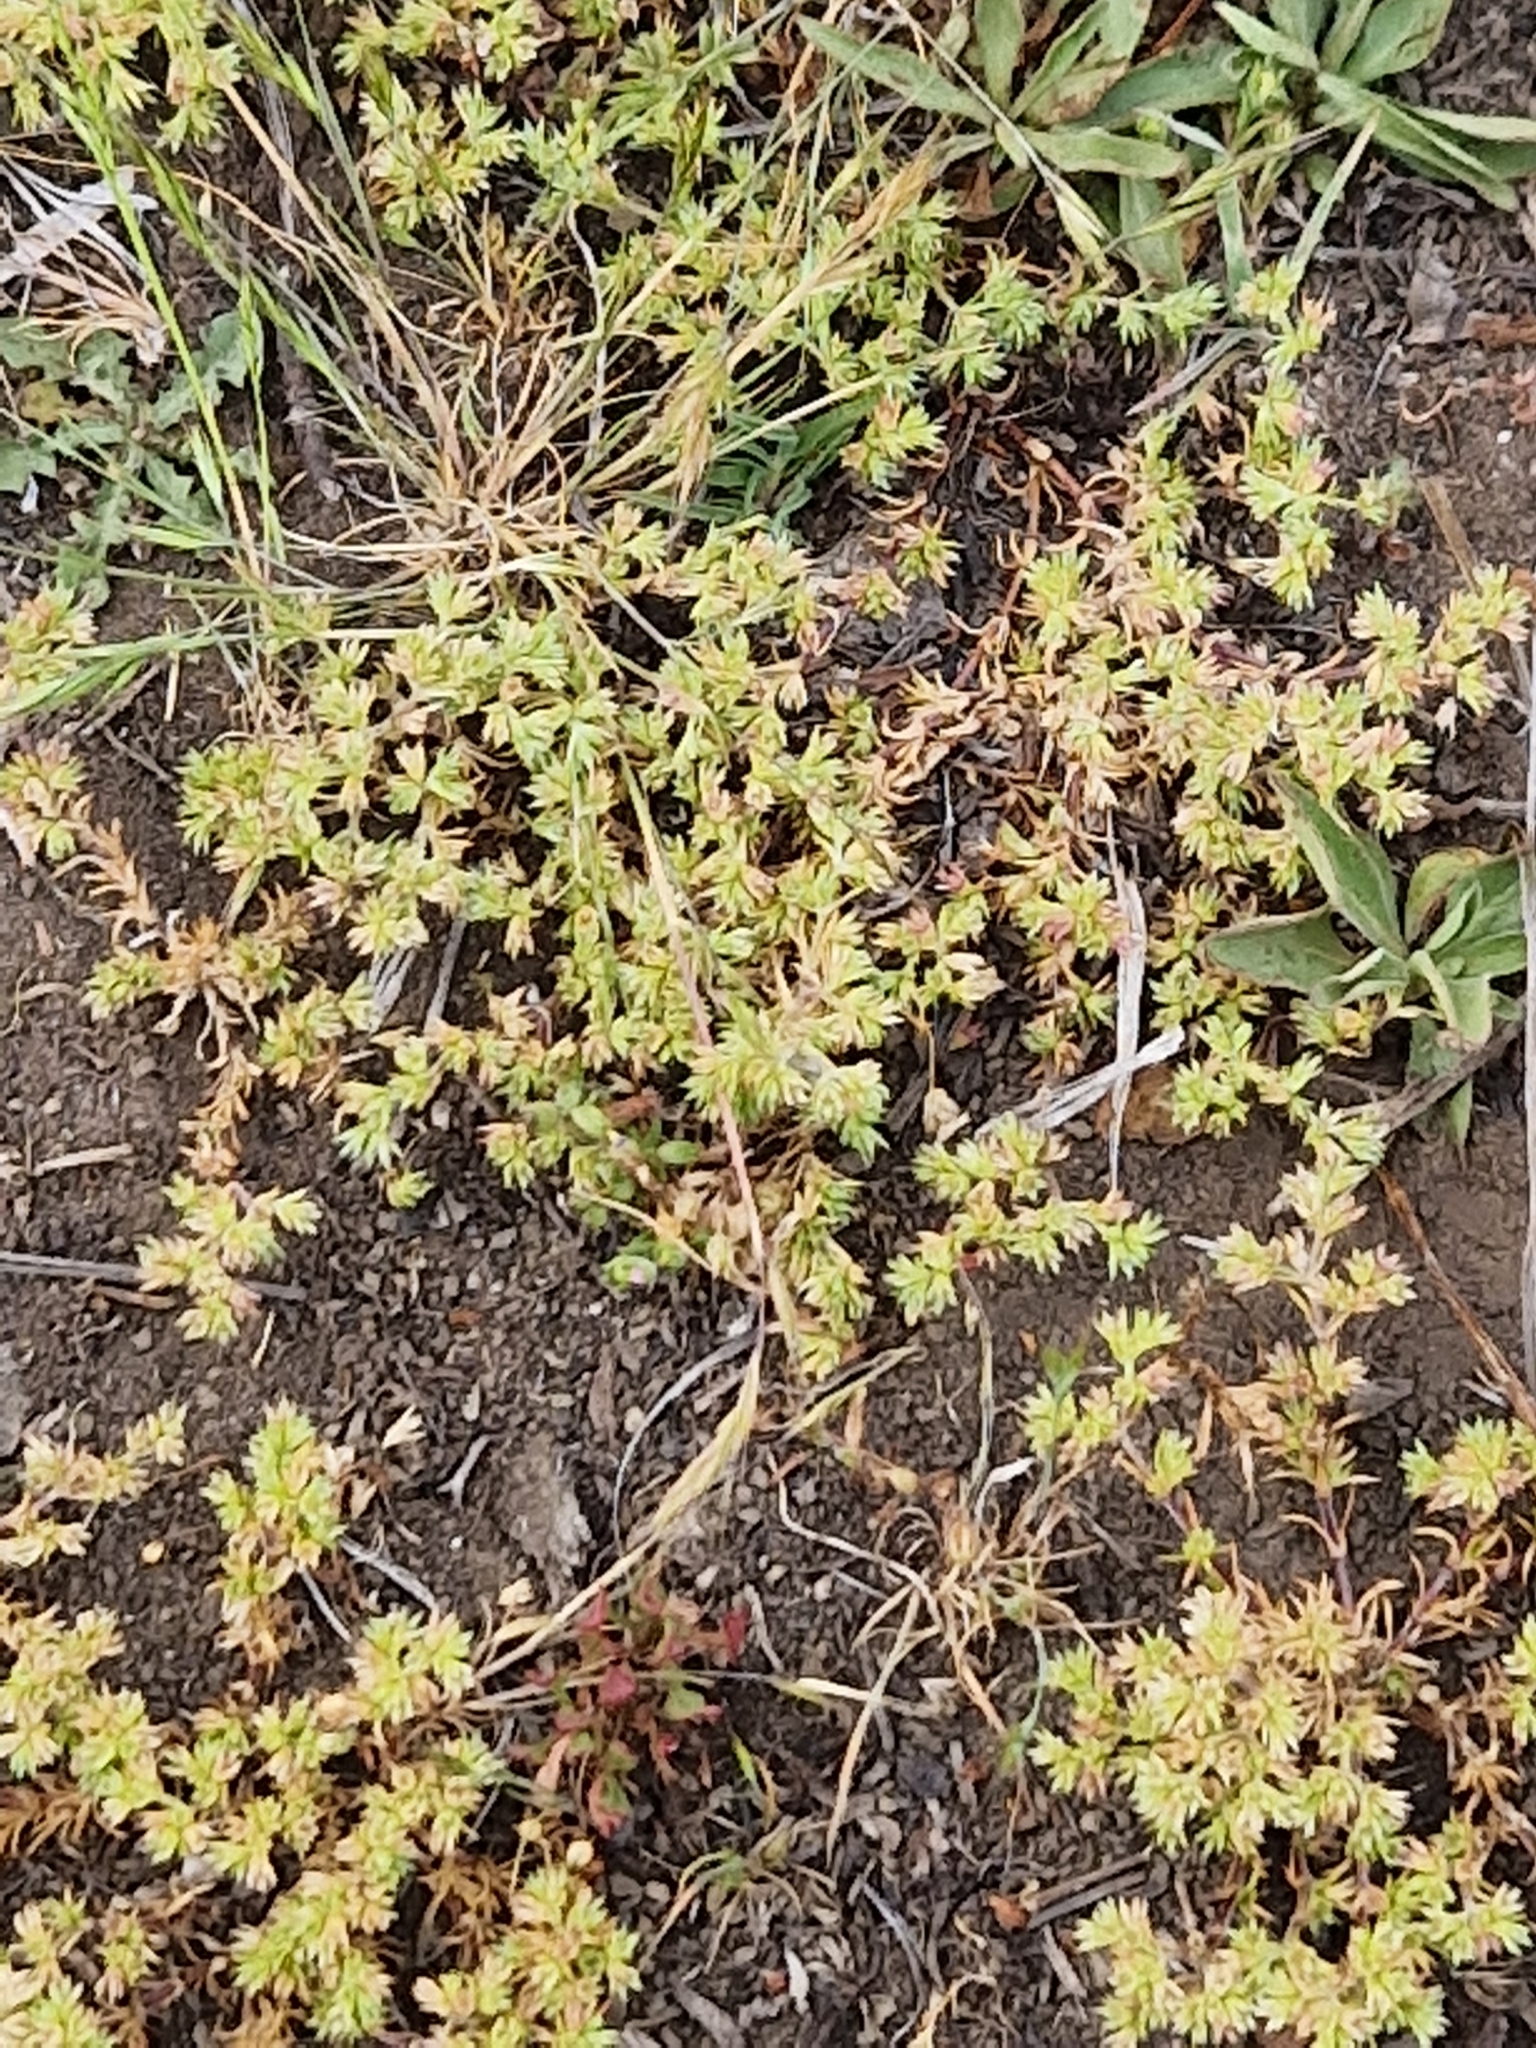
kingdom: Plantae
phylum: Tracheophyta
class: Magnoliopsida
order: Caryophyllales
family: Caryophyllaceae
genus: Scleranthus
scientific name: Scleranthus annuus
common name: Annual knawel
